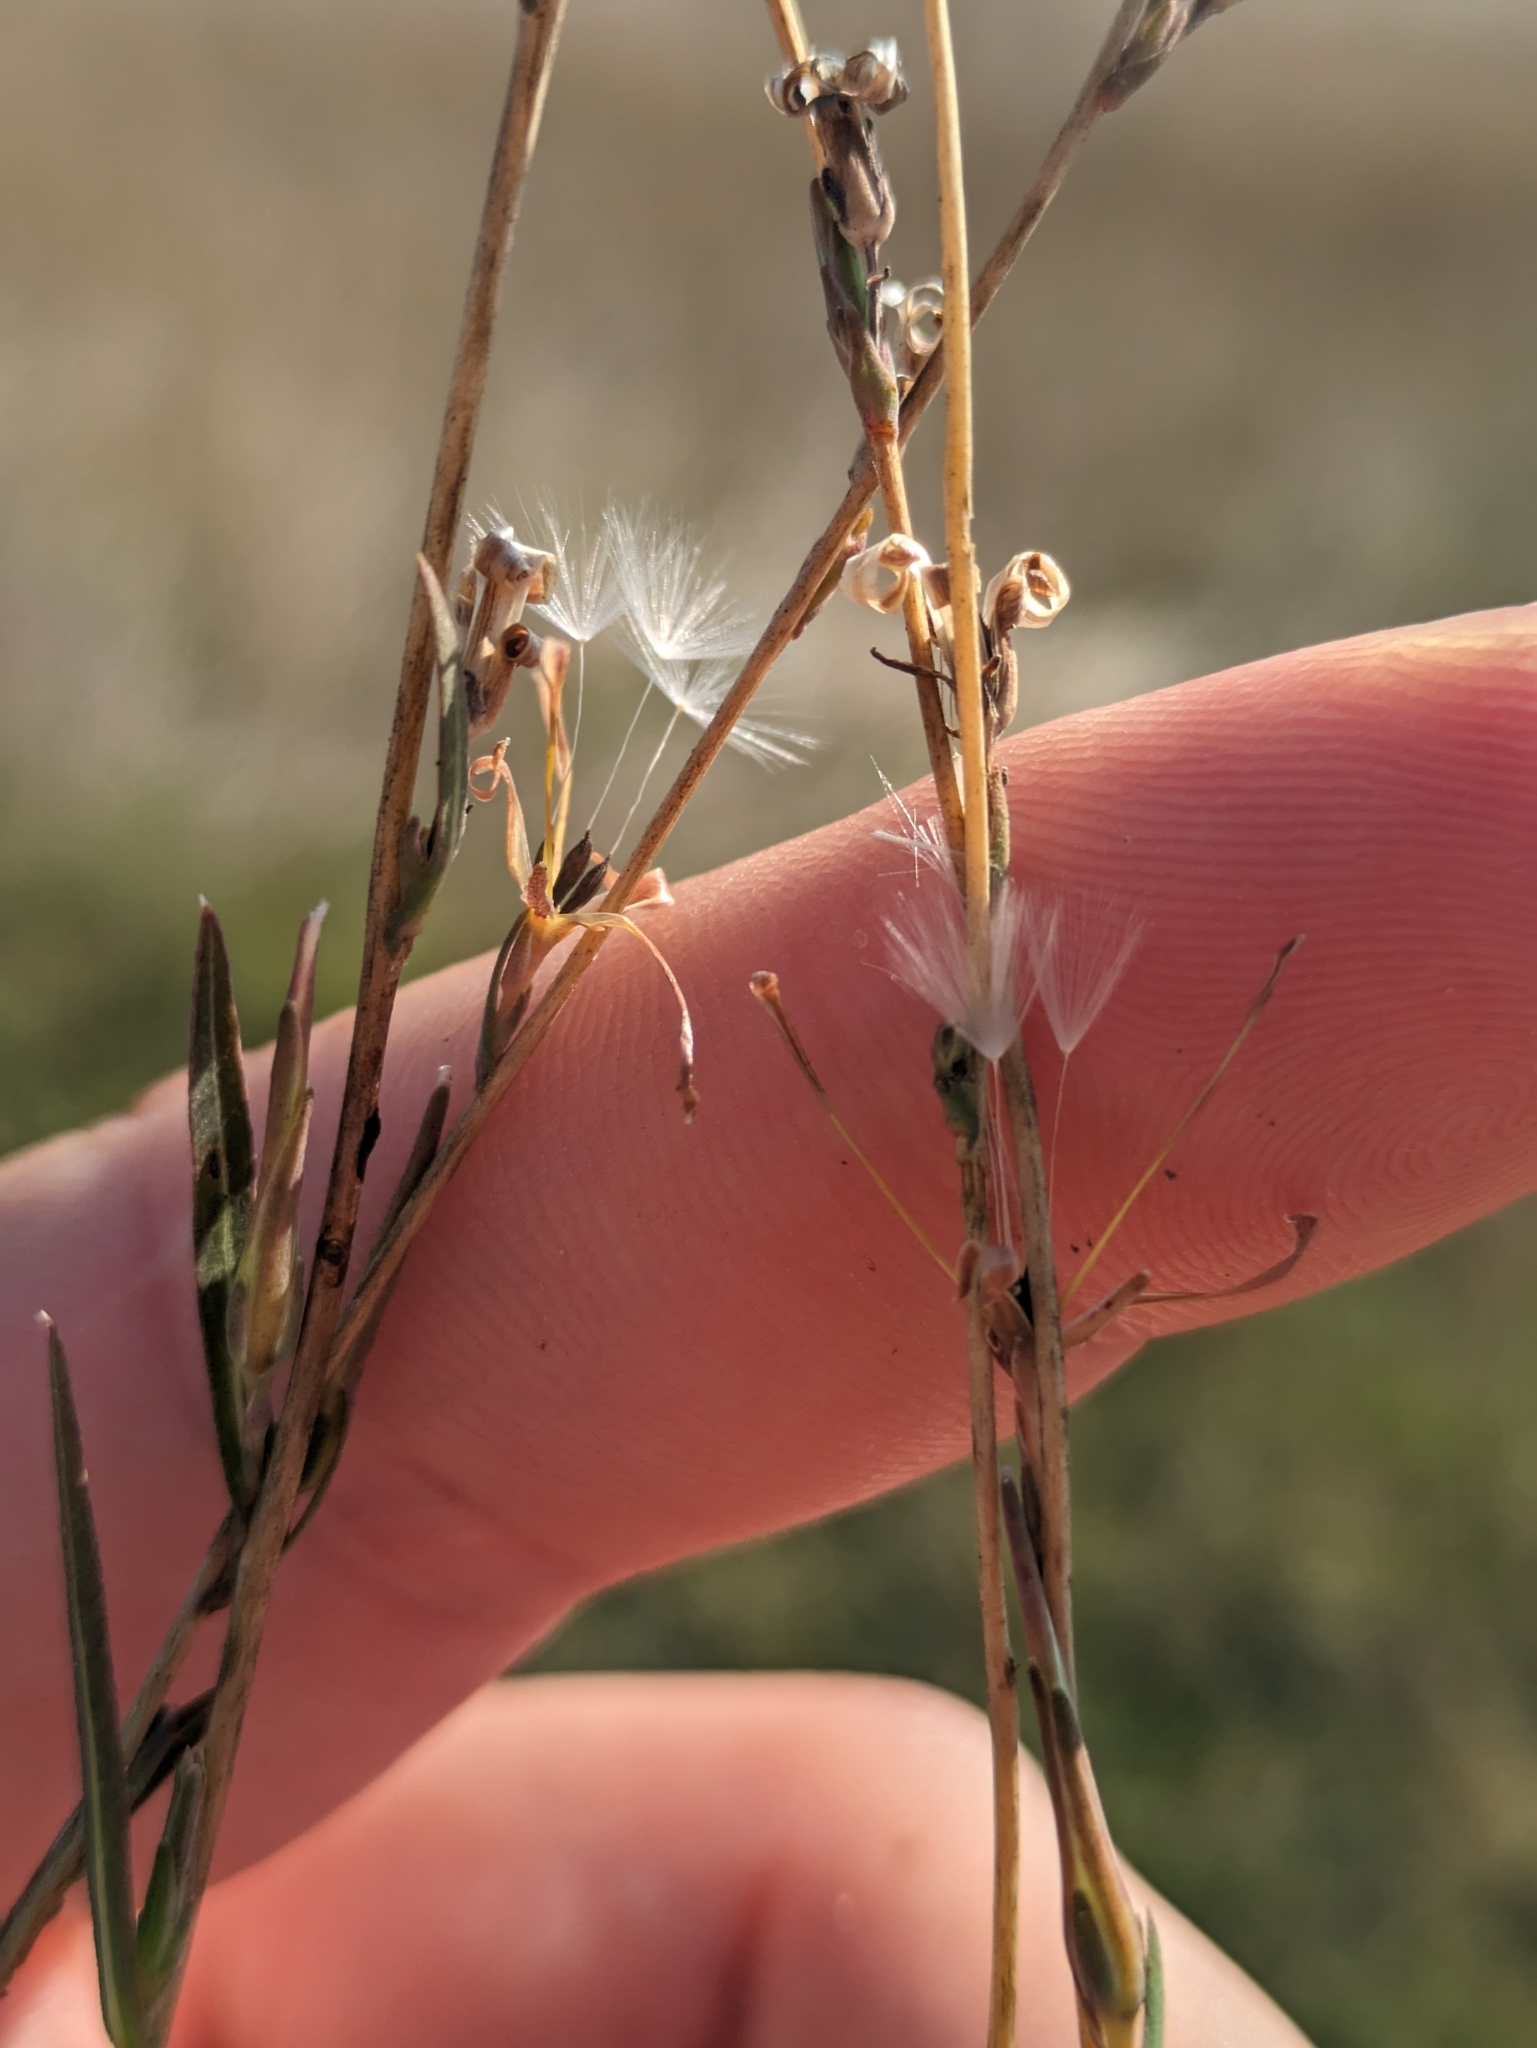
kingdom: Plantae
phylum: Tracheophyta
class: Magnoliopsida
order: Asterales
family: Asteraceae
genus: Lactuca
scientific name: Lactuca saligna
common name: Wild lettuce
